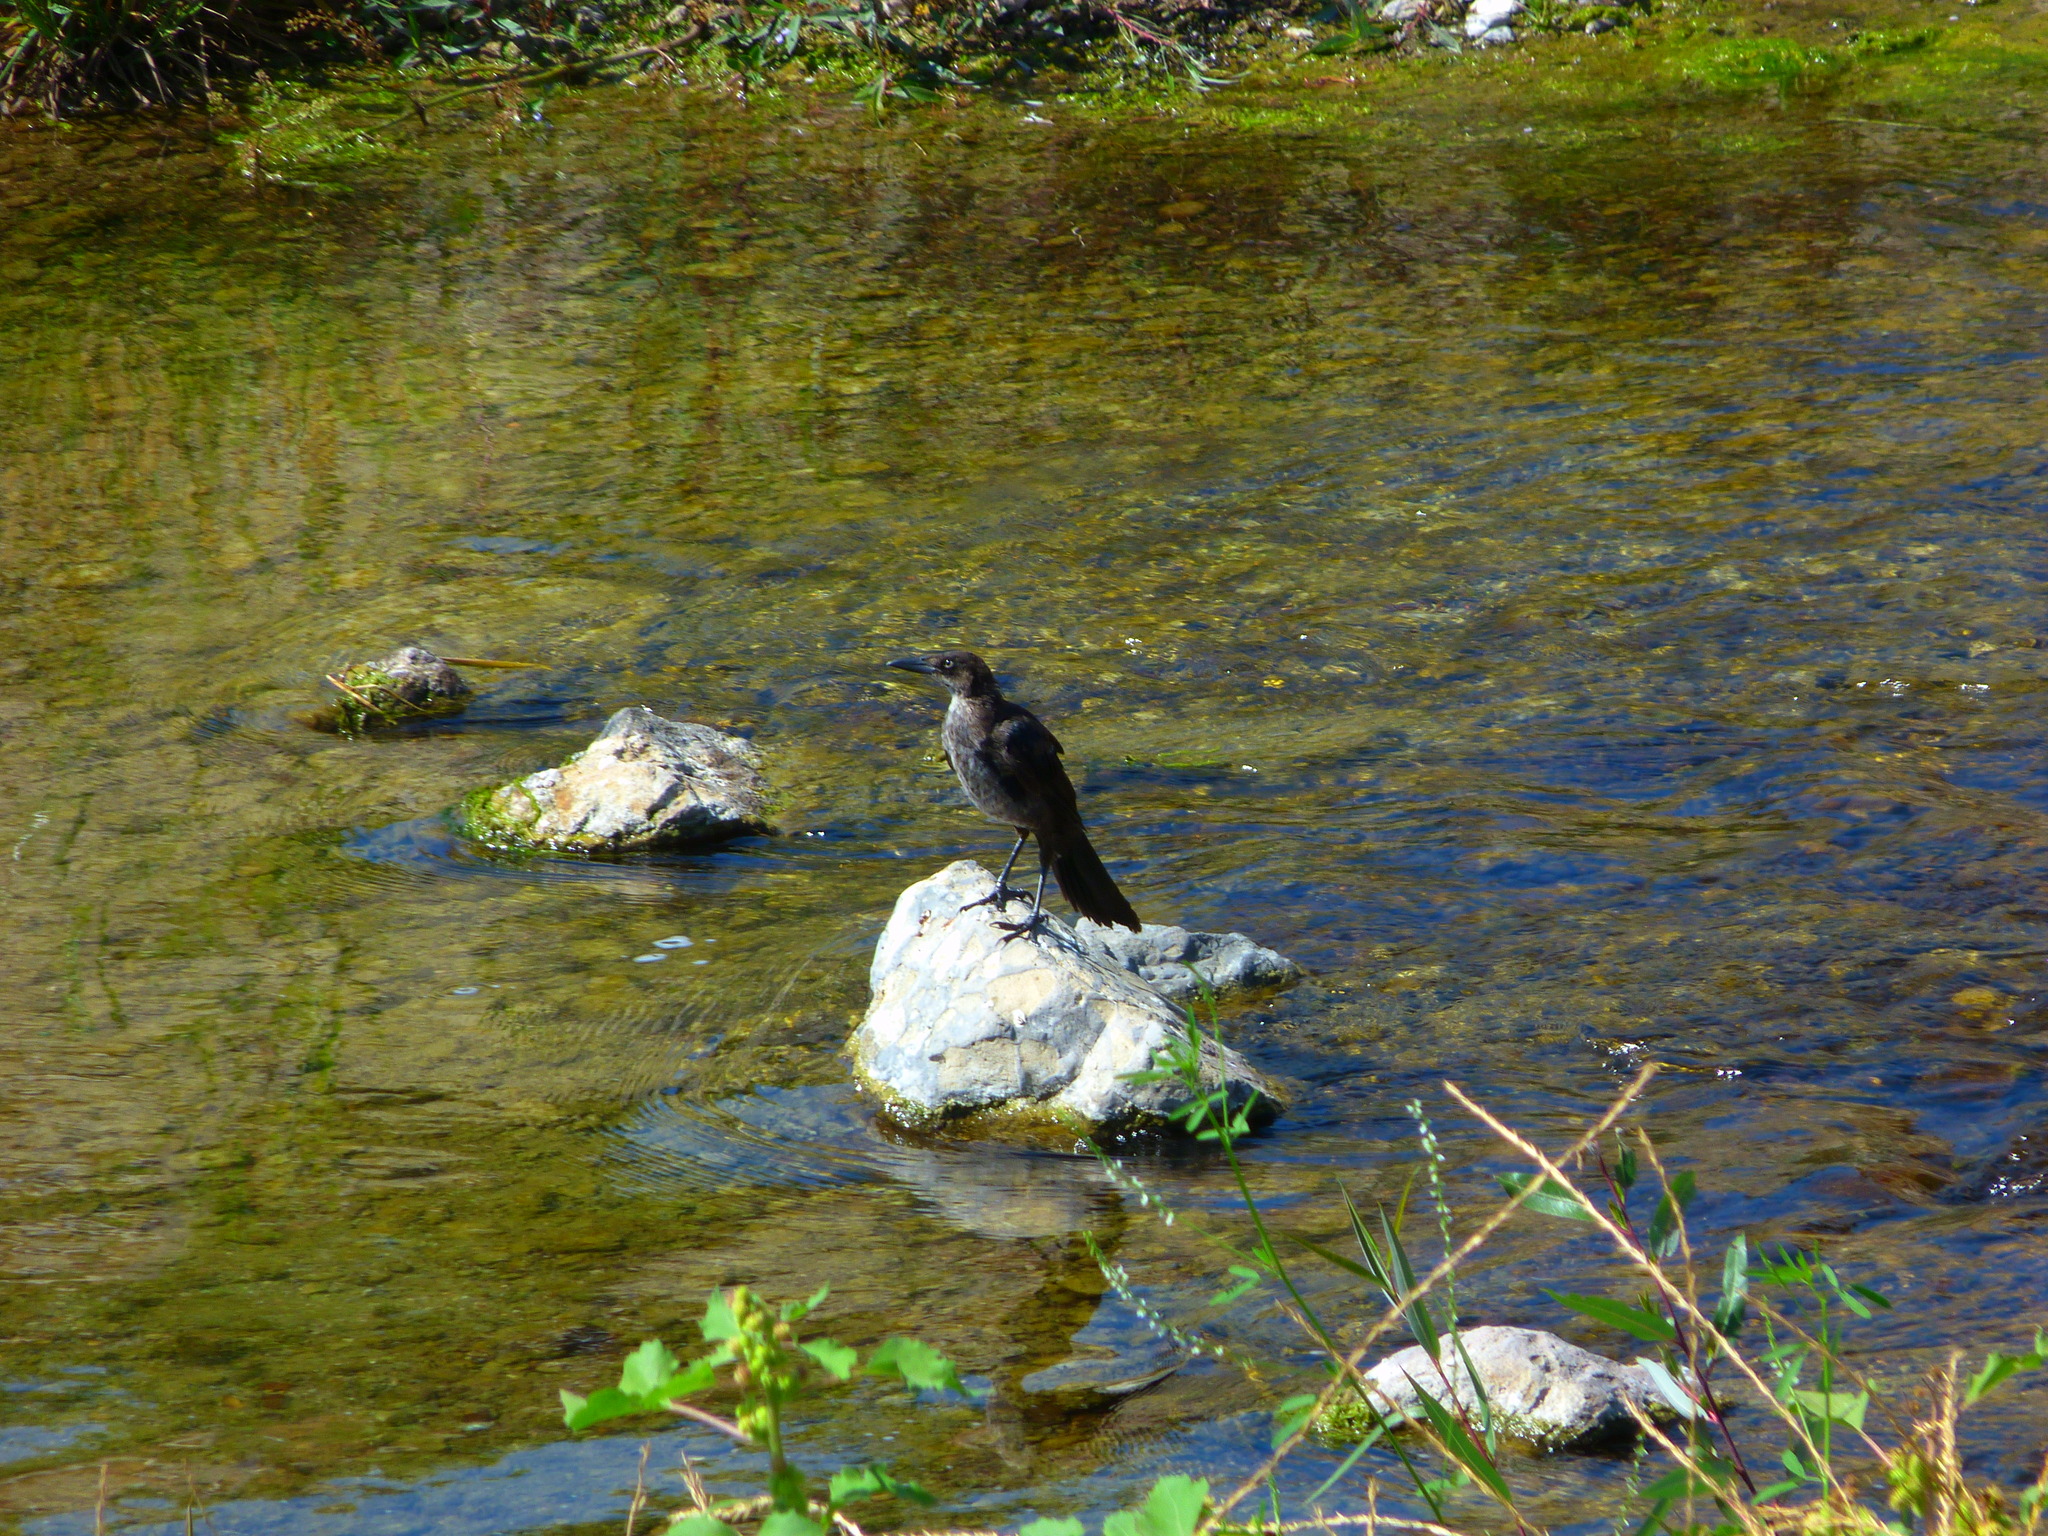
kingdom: Animalia
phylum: Chordata
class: Aves
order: Passeriformes
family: Icteridae
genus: Quiscalus
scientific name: Quiscalus mexicanus
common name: Great-tailed grackle
